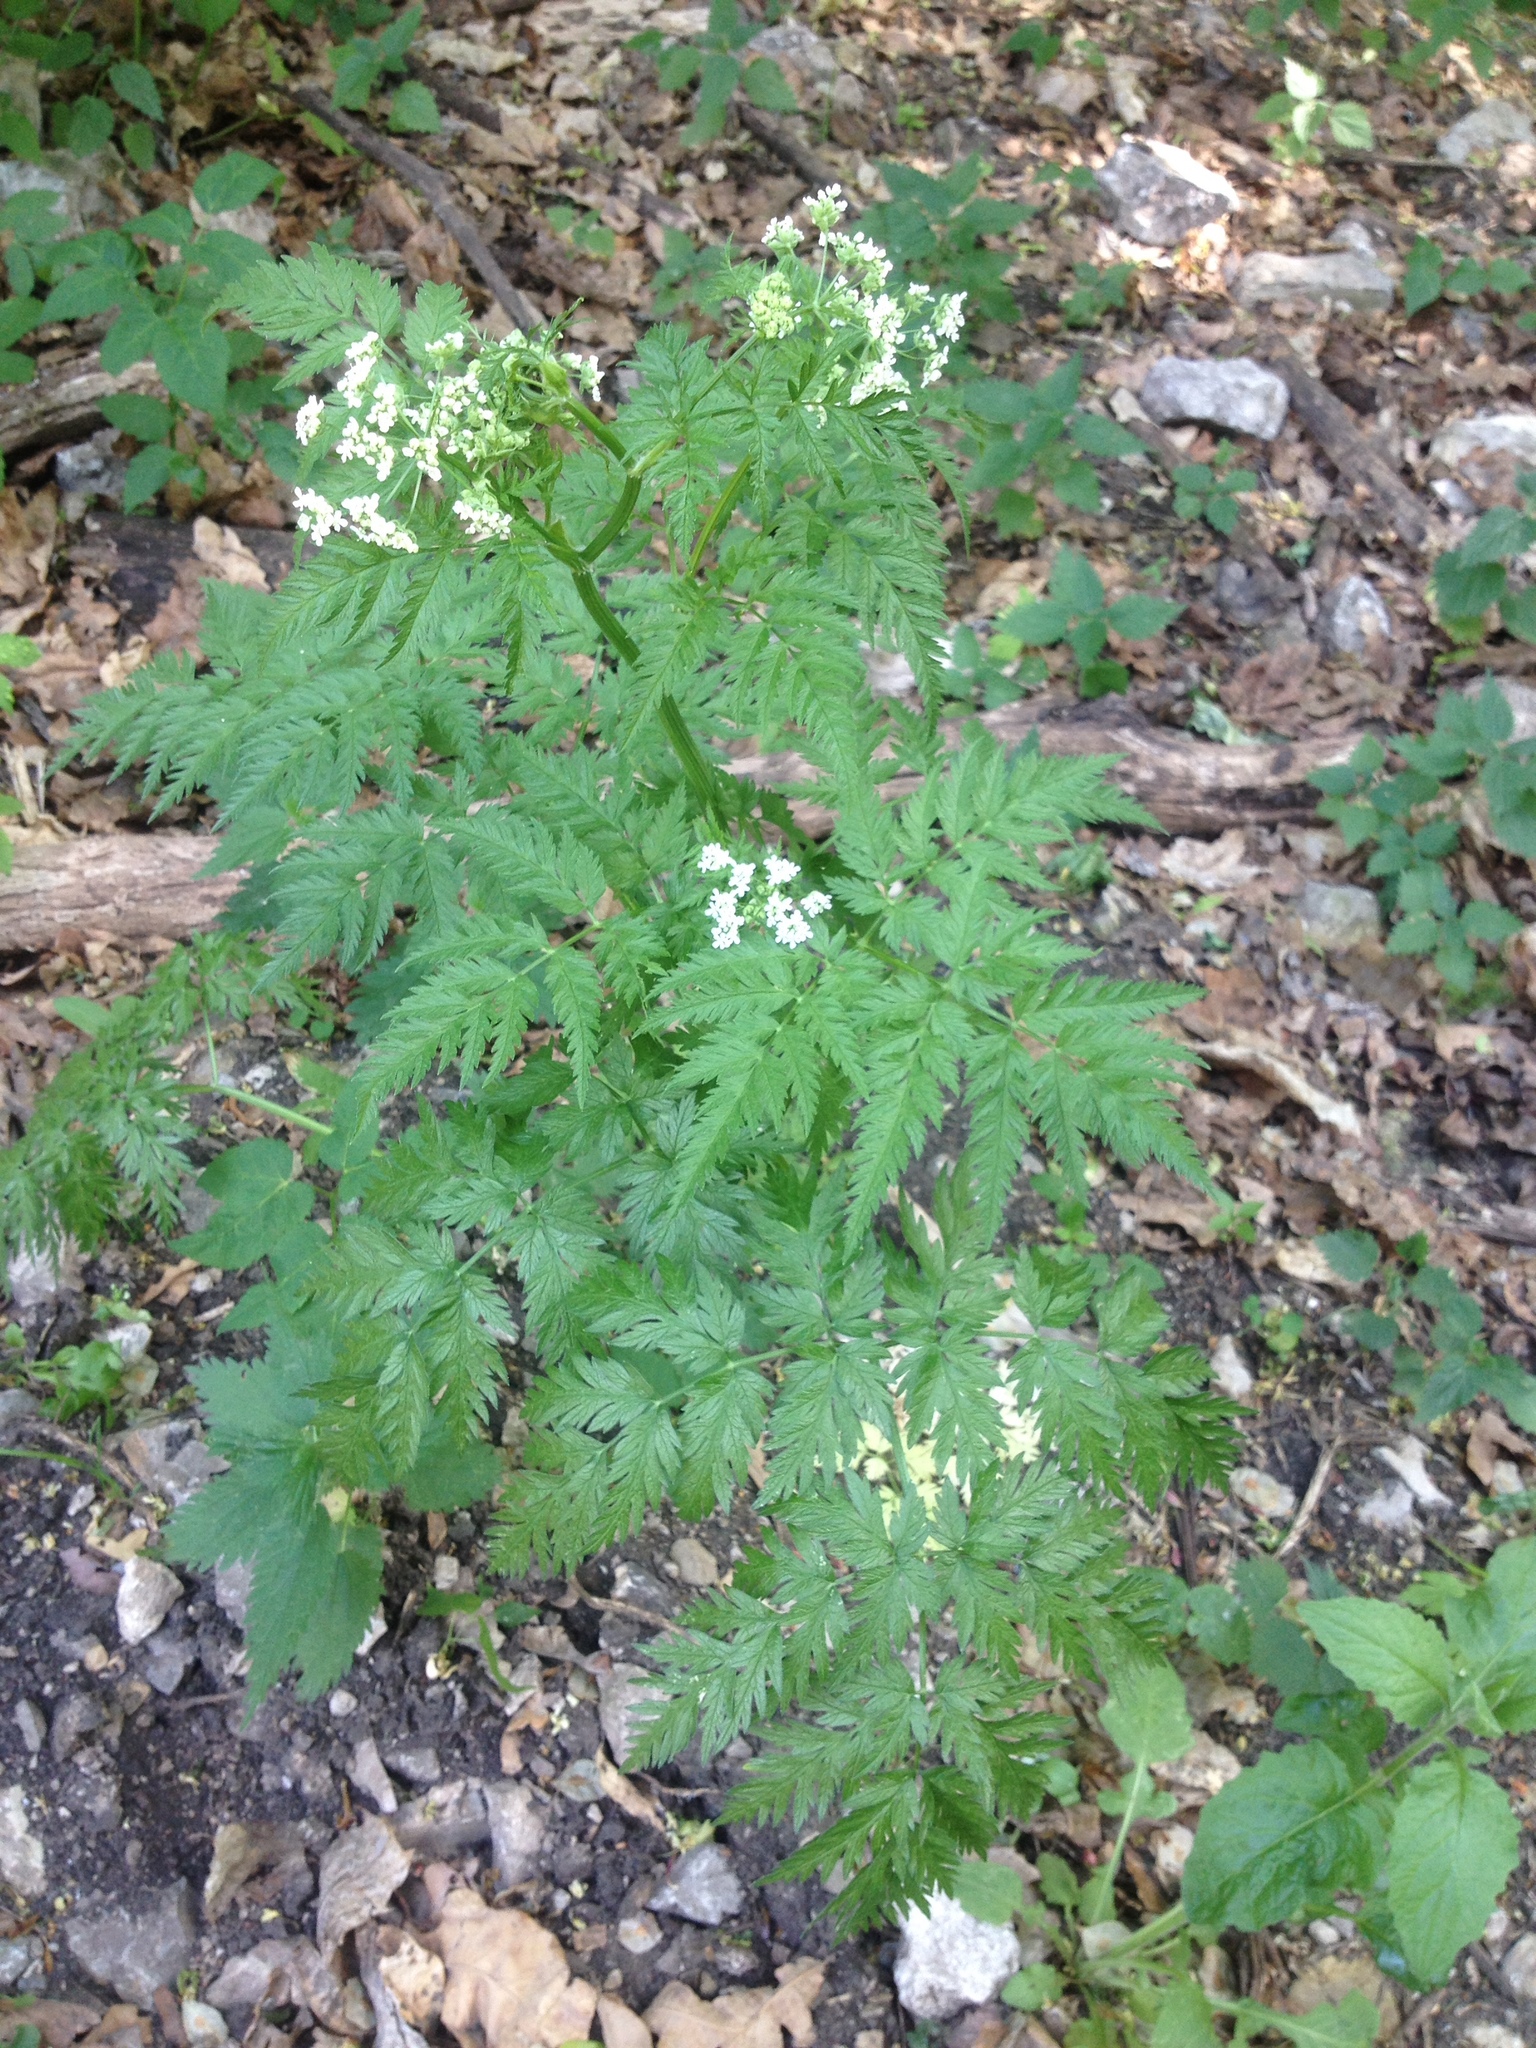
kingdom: Plantae
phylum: Tracheophyta
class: Magnoliopsida
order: Apiales
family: Apiaceae
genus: Anthriscus
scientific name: Anthriscus sylvestris
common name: Cow parsley
